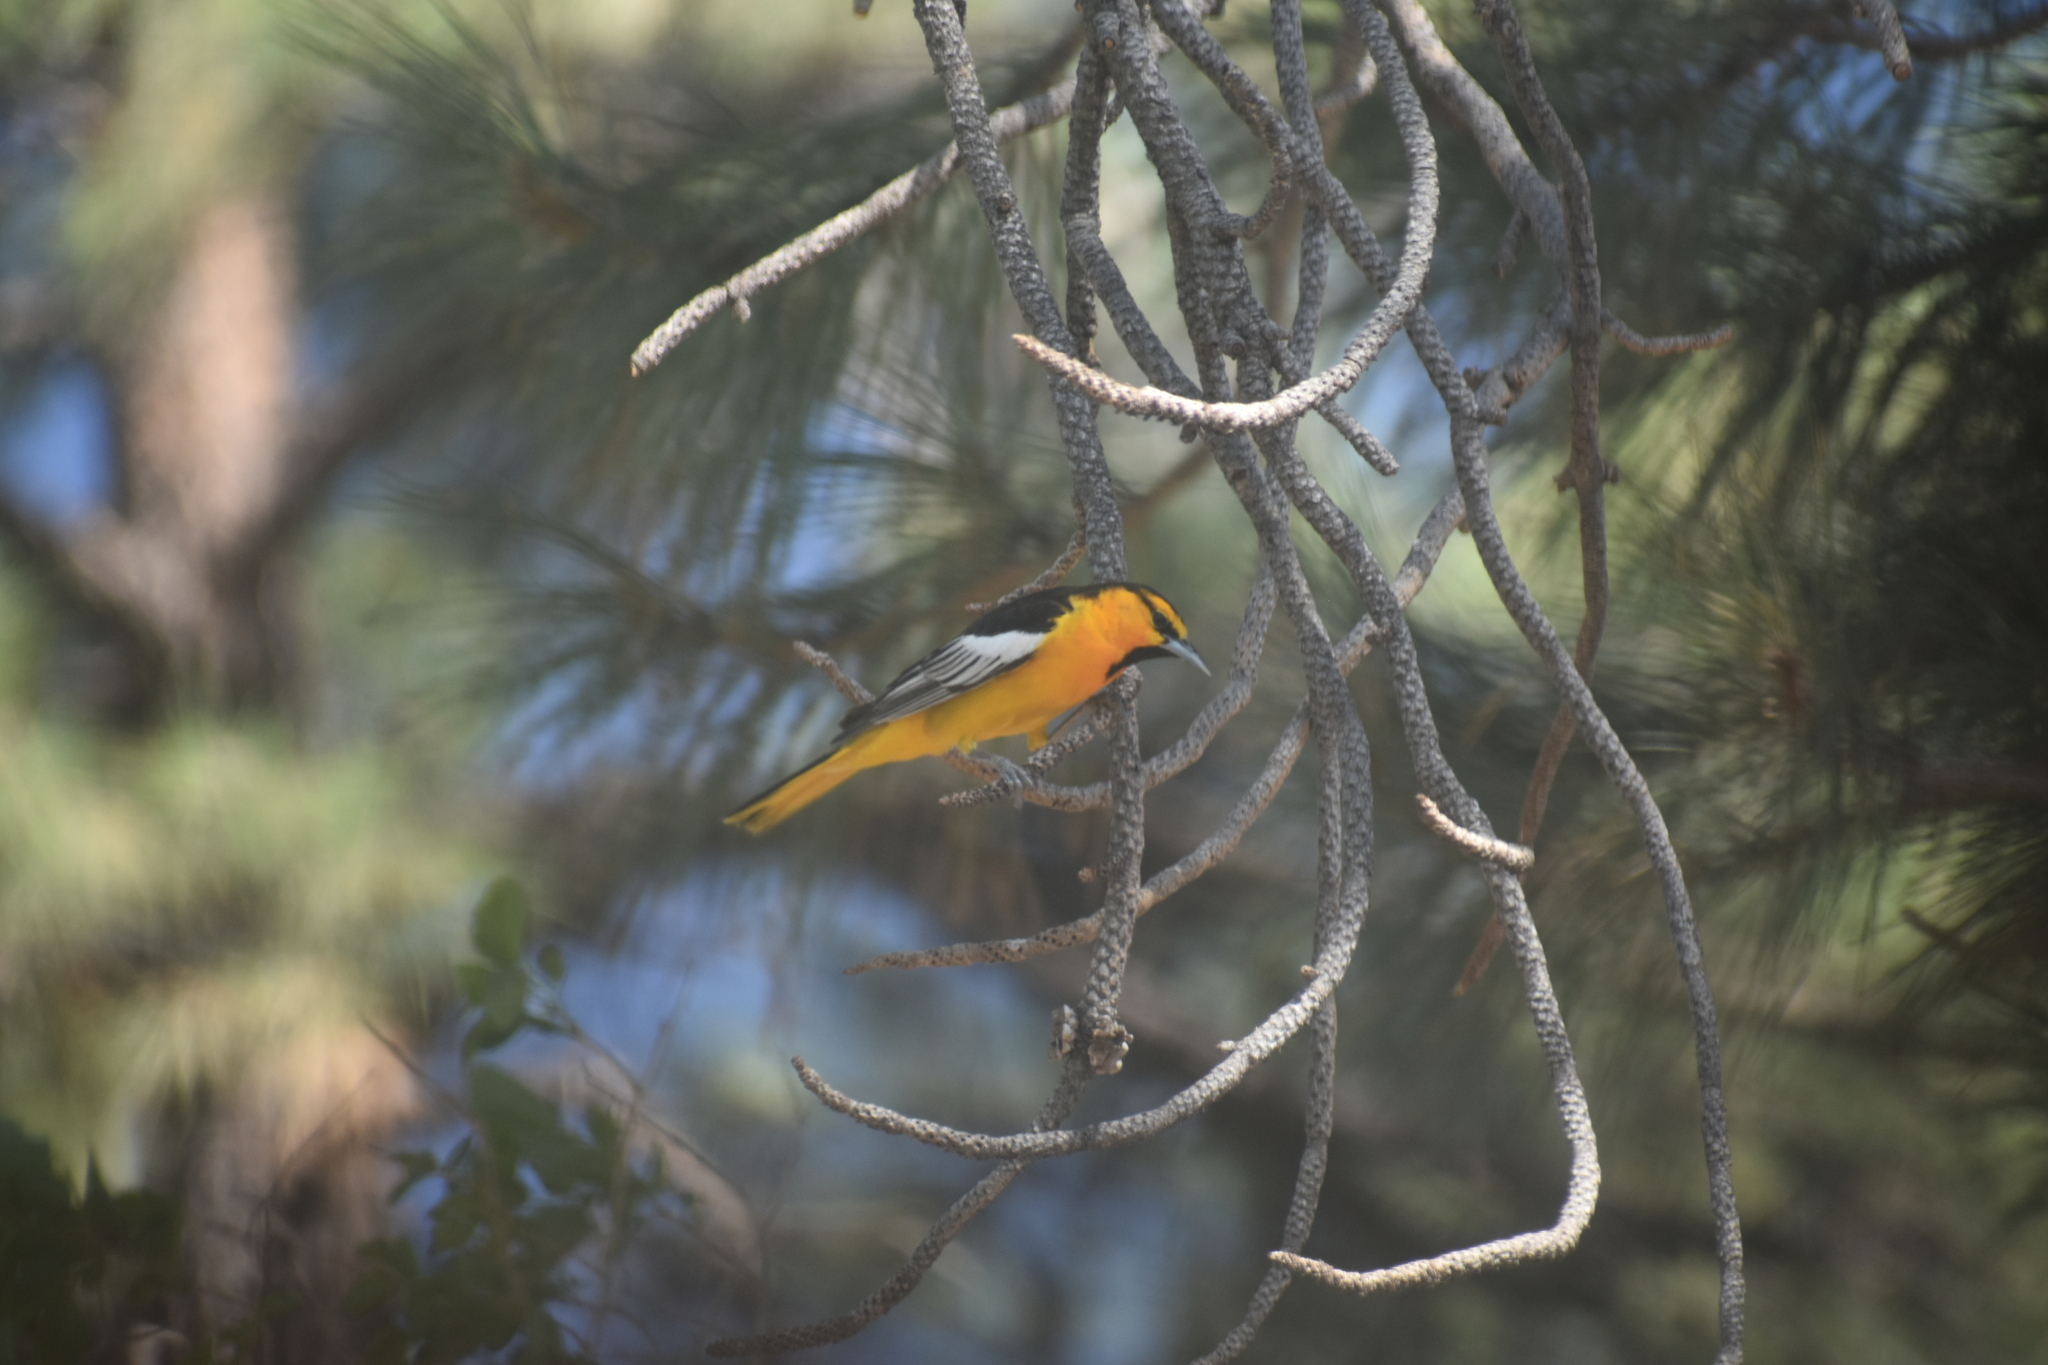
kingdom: Animalia
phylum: Chordata
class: Aves
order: Passeriformes
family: Icteridae
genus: Icterus
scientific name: Icterus bullockii
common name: Bullock's oriole
